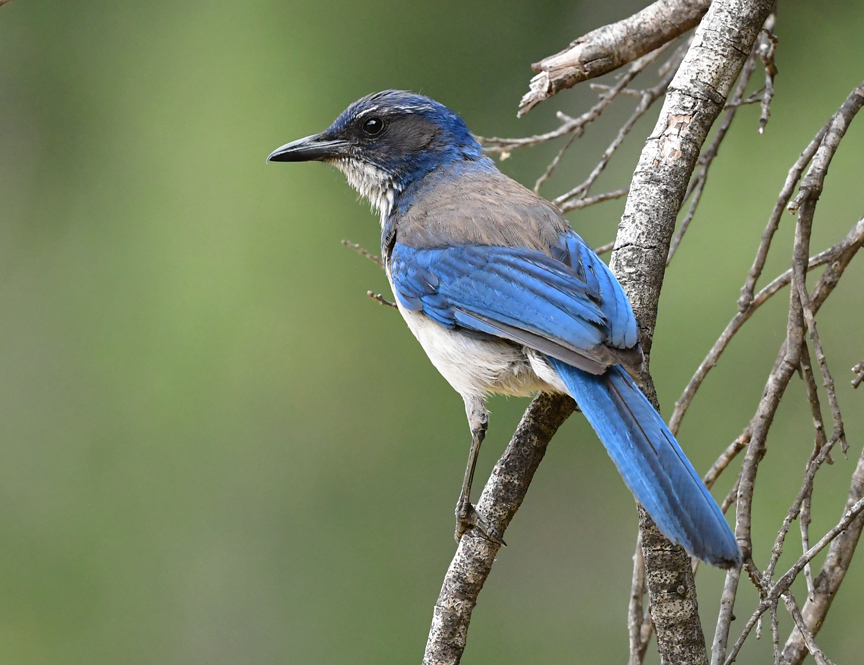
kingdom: Animalia
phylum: Chordata
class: Aves
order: Passeriformes
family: Corvidae
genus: Aphelocoma
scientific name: Aphelocoma californica
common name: California scrub-jay
